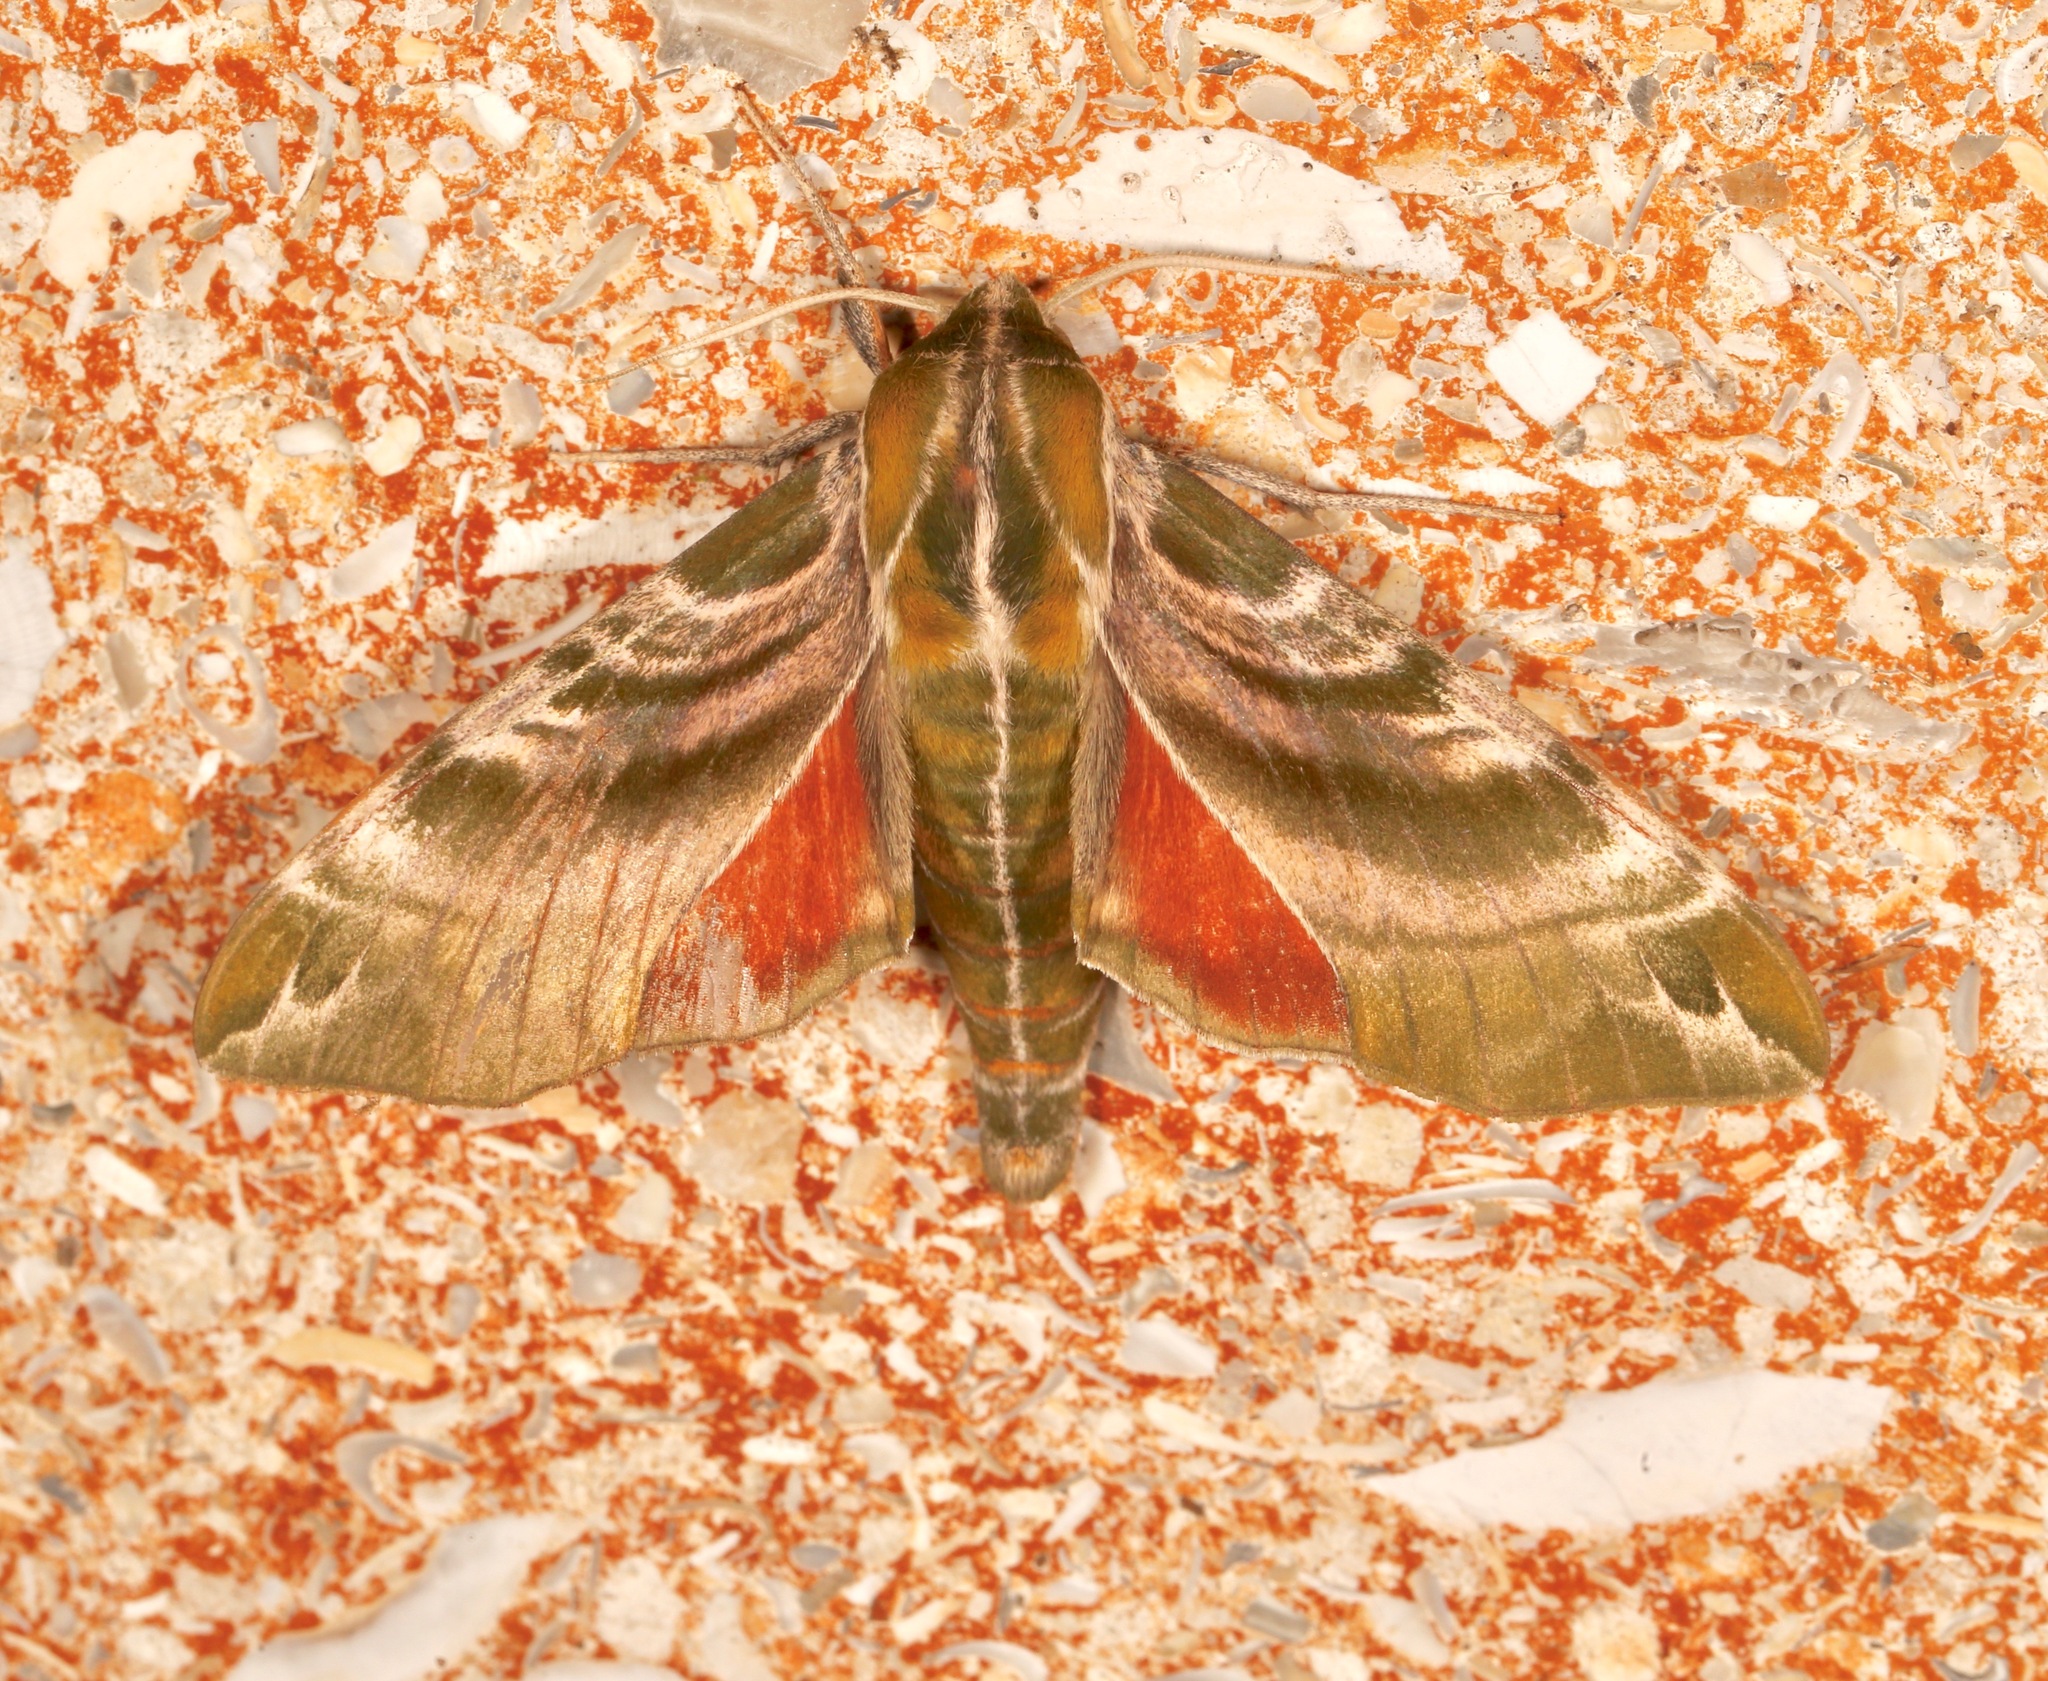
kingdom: Animalia
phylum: Arthropoda
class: Insecta
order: Lepidoptera
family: Sphingidae
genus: Darapsa
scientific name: Darapsa versicolor
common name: Hydrangea sphinx
